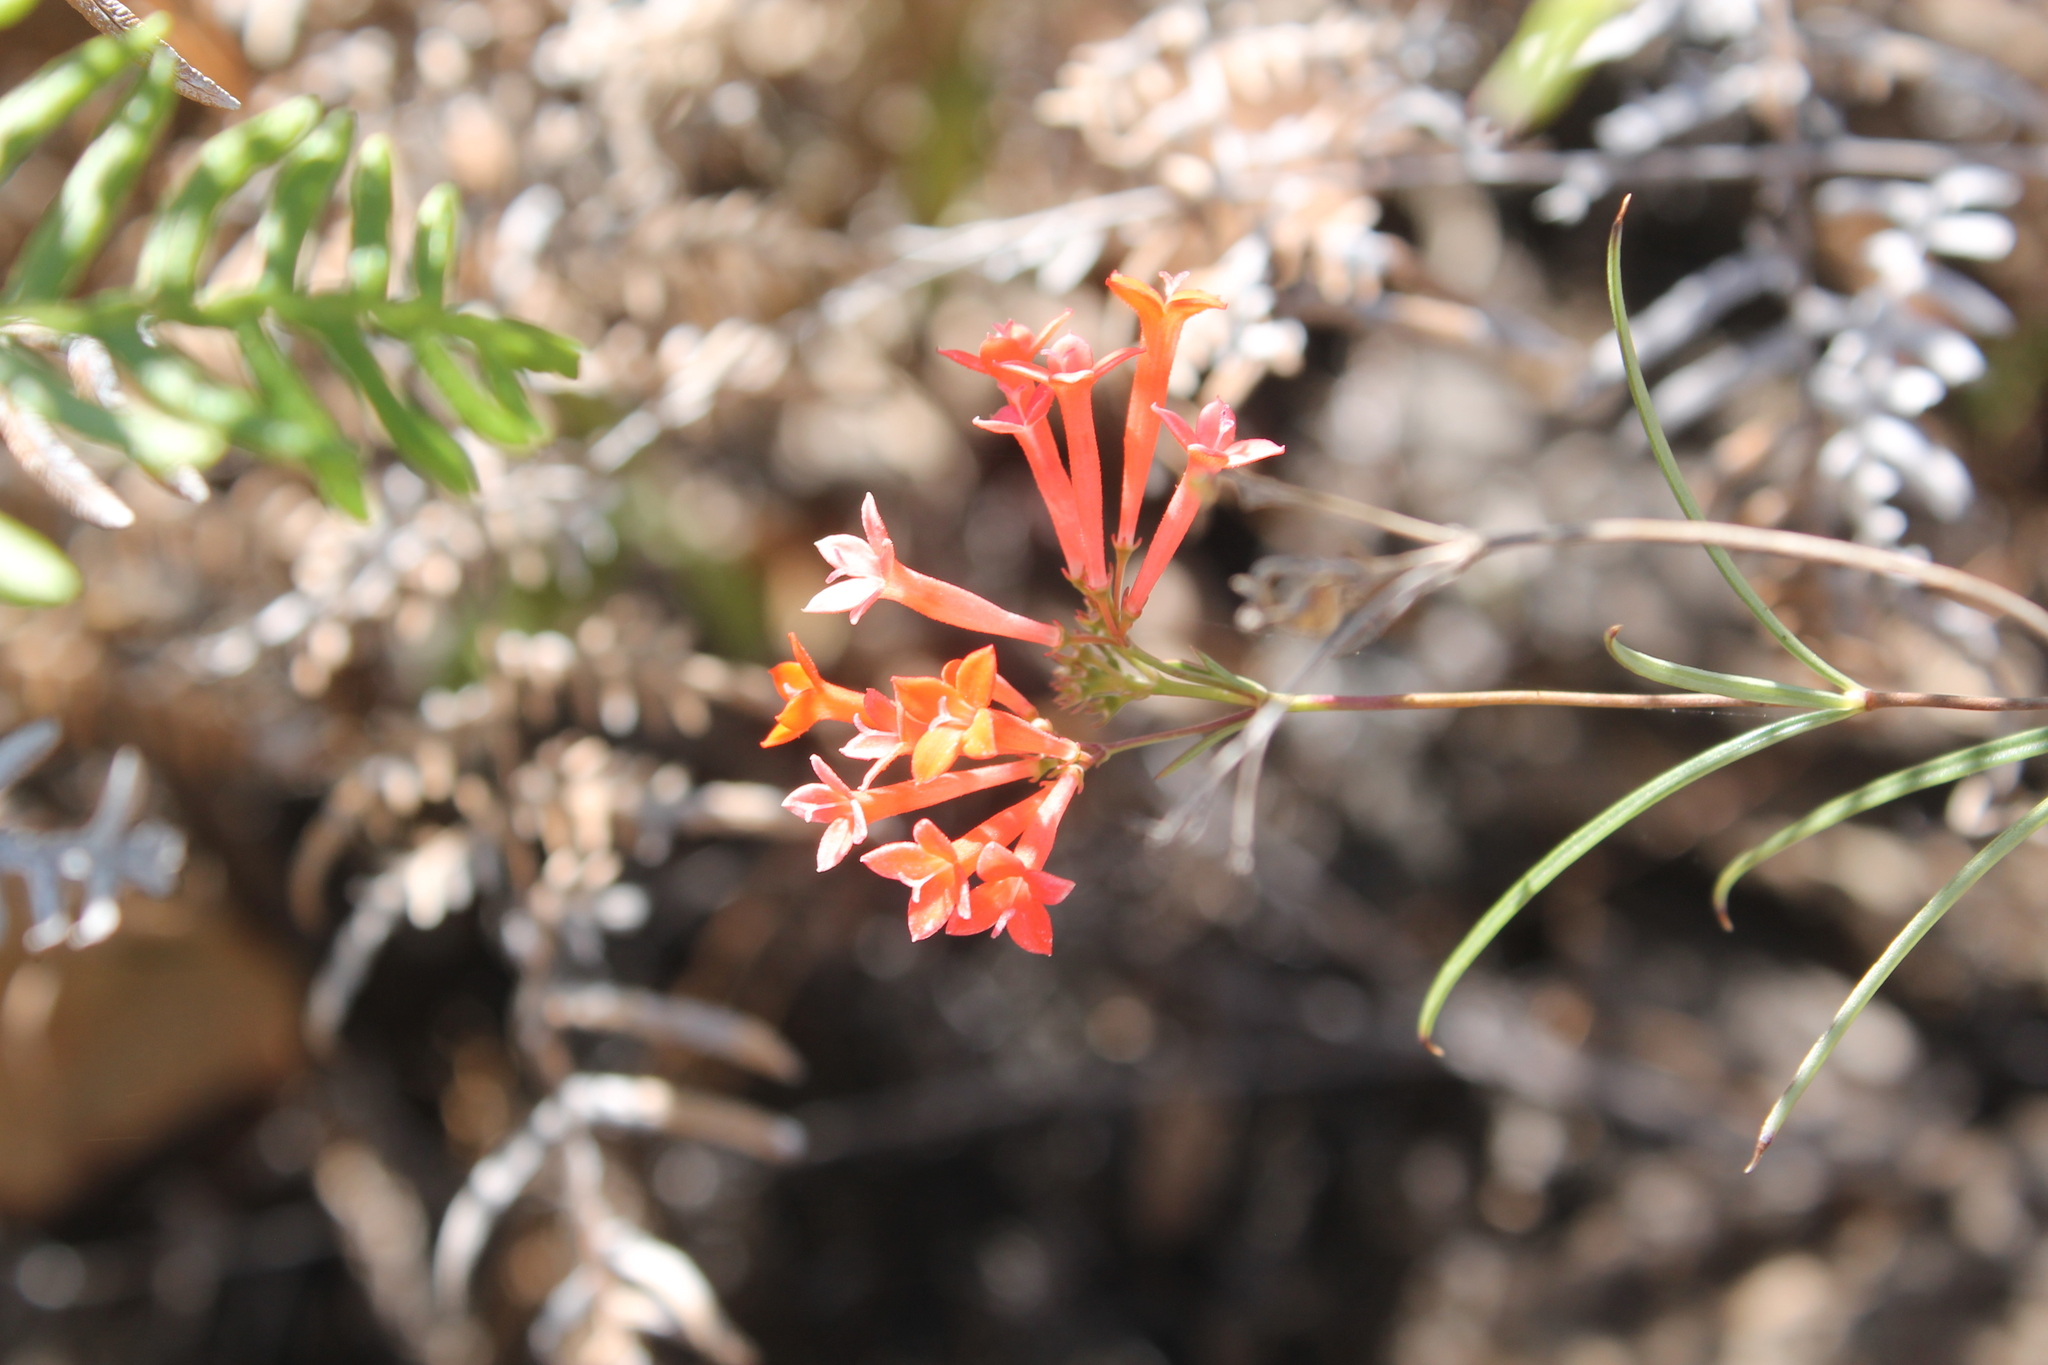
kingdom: Plantae
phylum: Tracheophyta
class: Magnoliopsida
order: Gentianales
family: Rubiaceae
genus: Bouvardia
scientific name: Bouvardia tenuifolia
